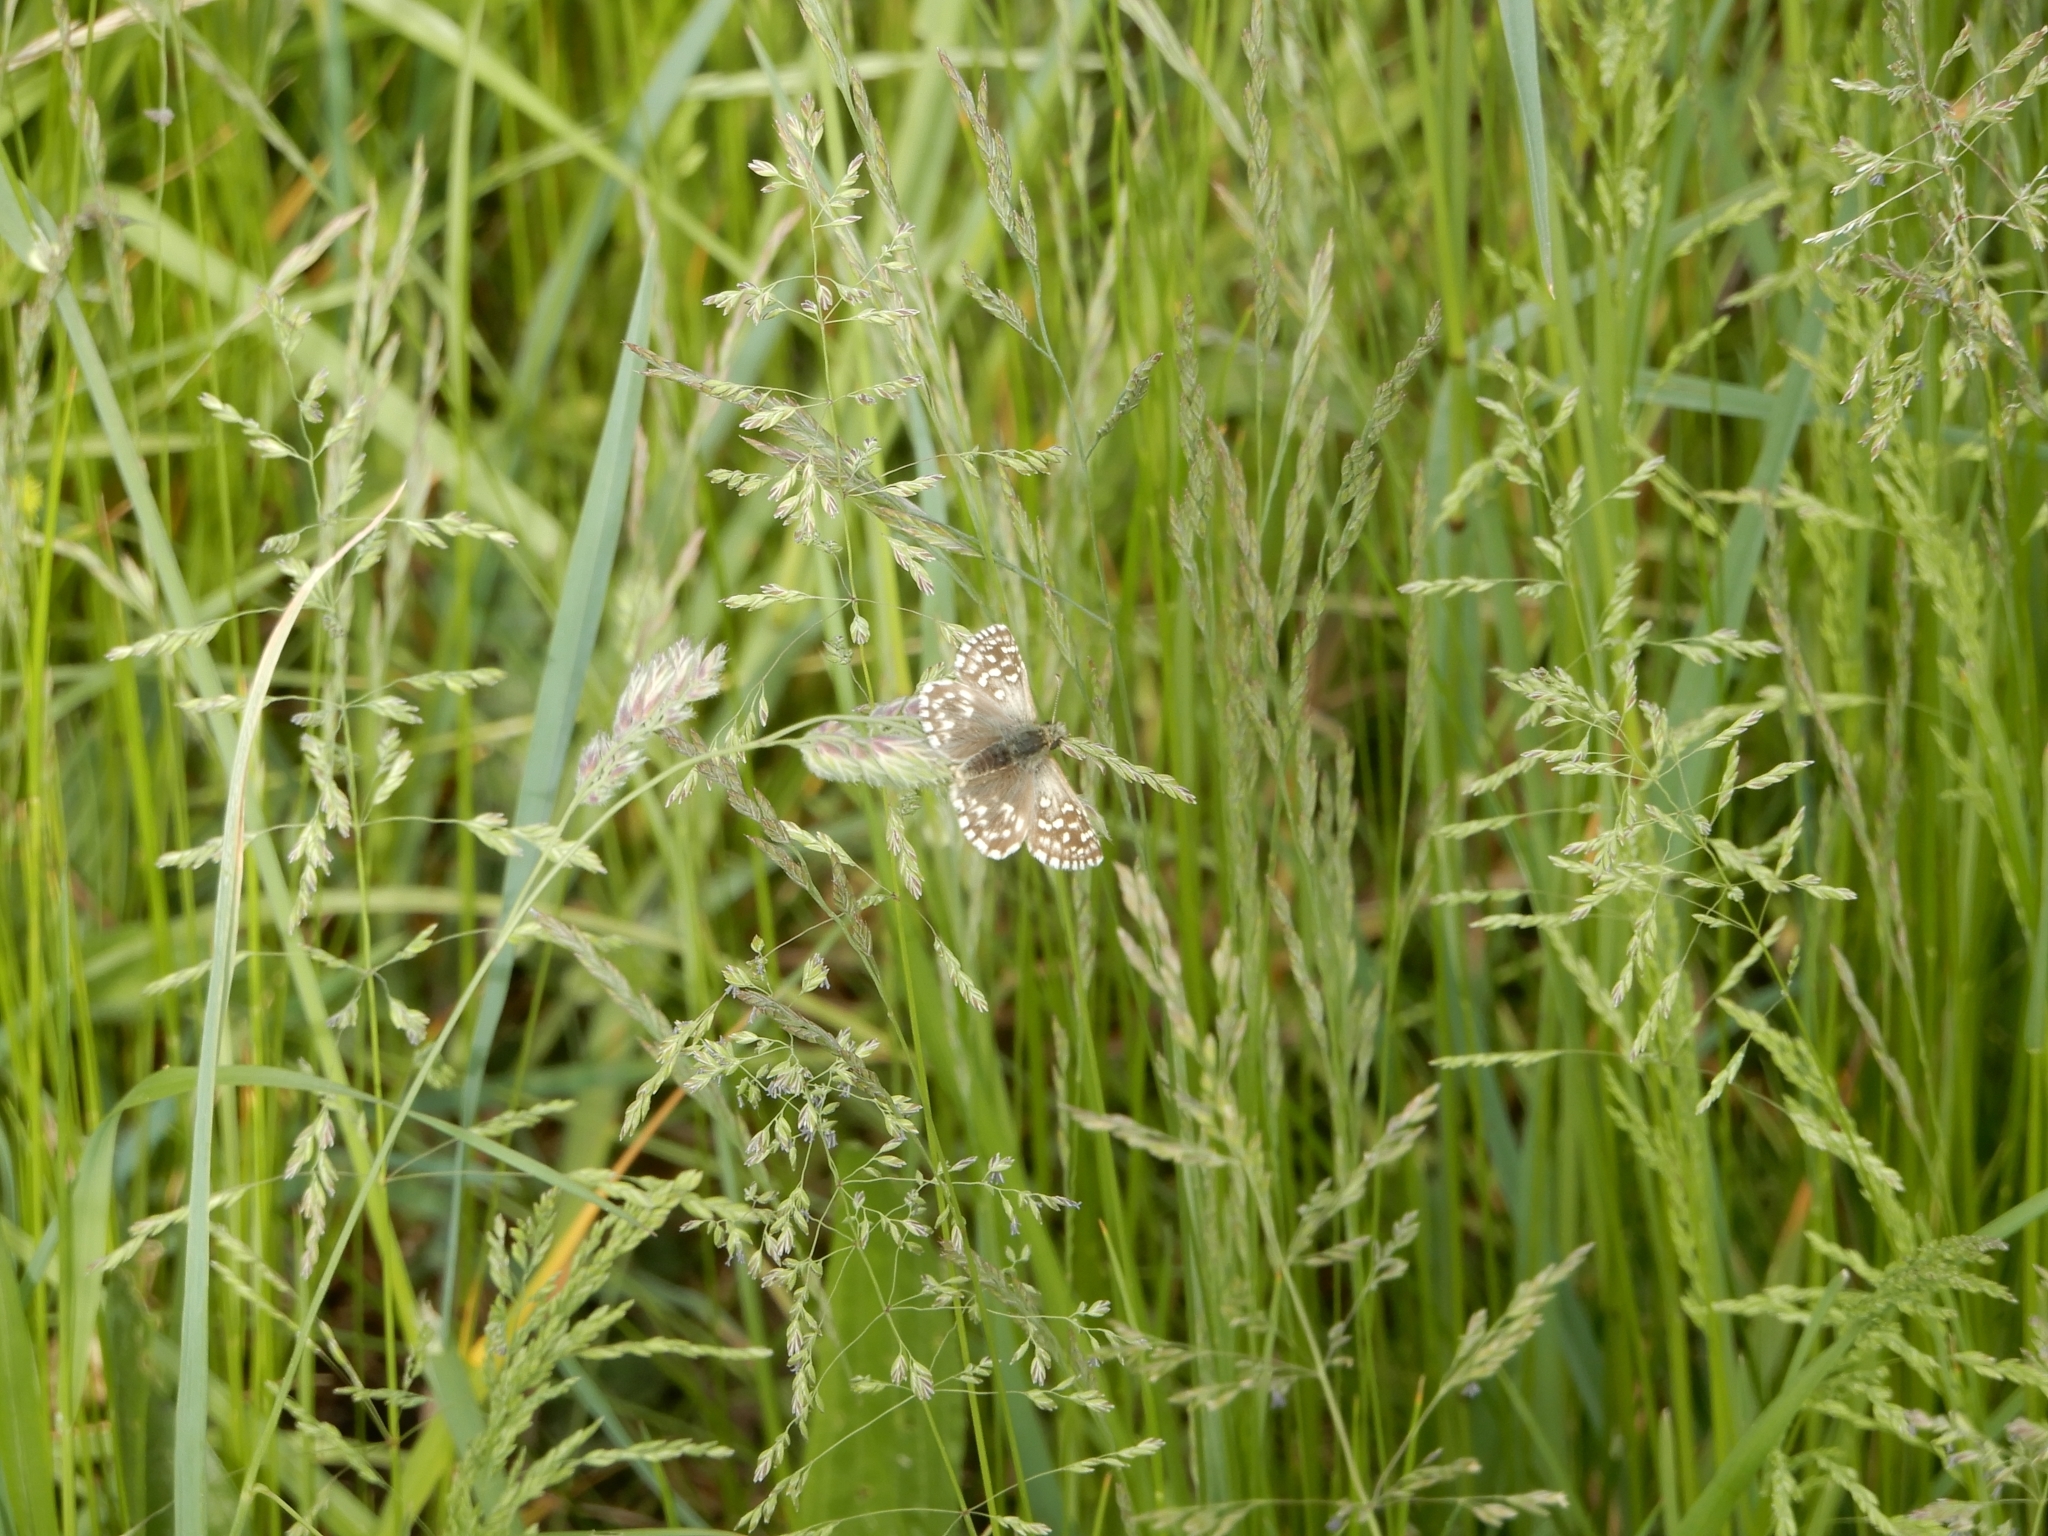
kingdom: Animalia
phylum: Arthropoda
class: Insecta
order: Lepidoptera
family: Hesperiidae
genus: Pyrgus
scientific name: Pyrgus malvae
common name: Grizzled skipper
